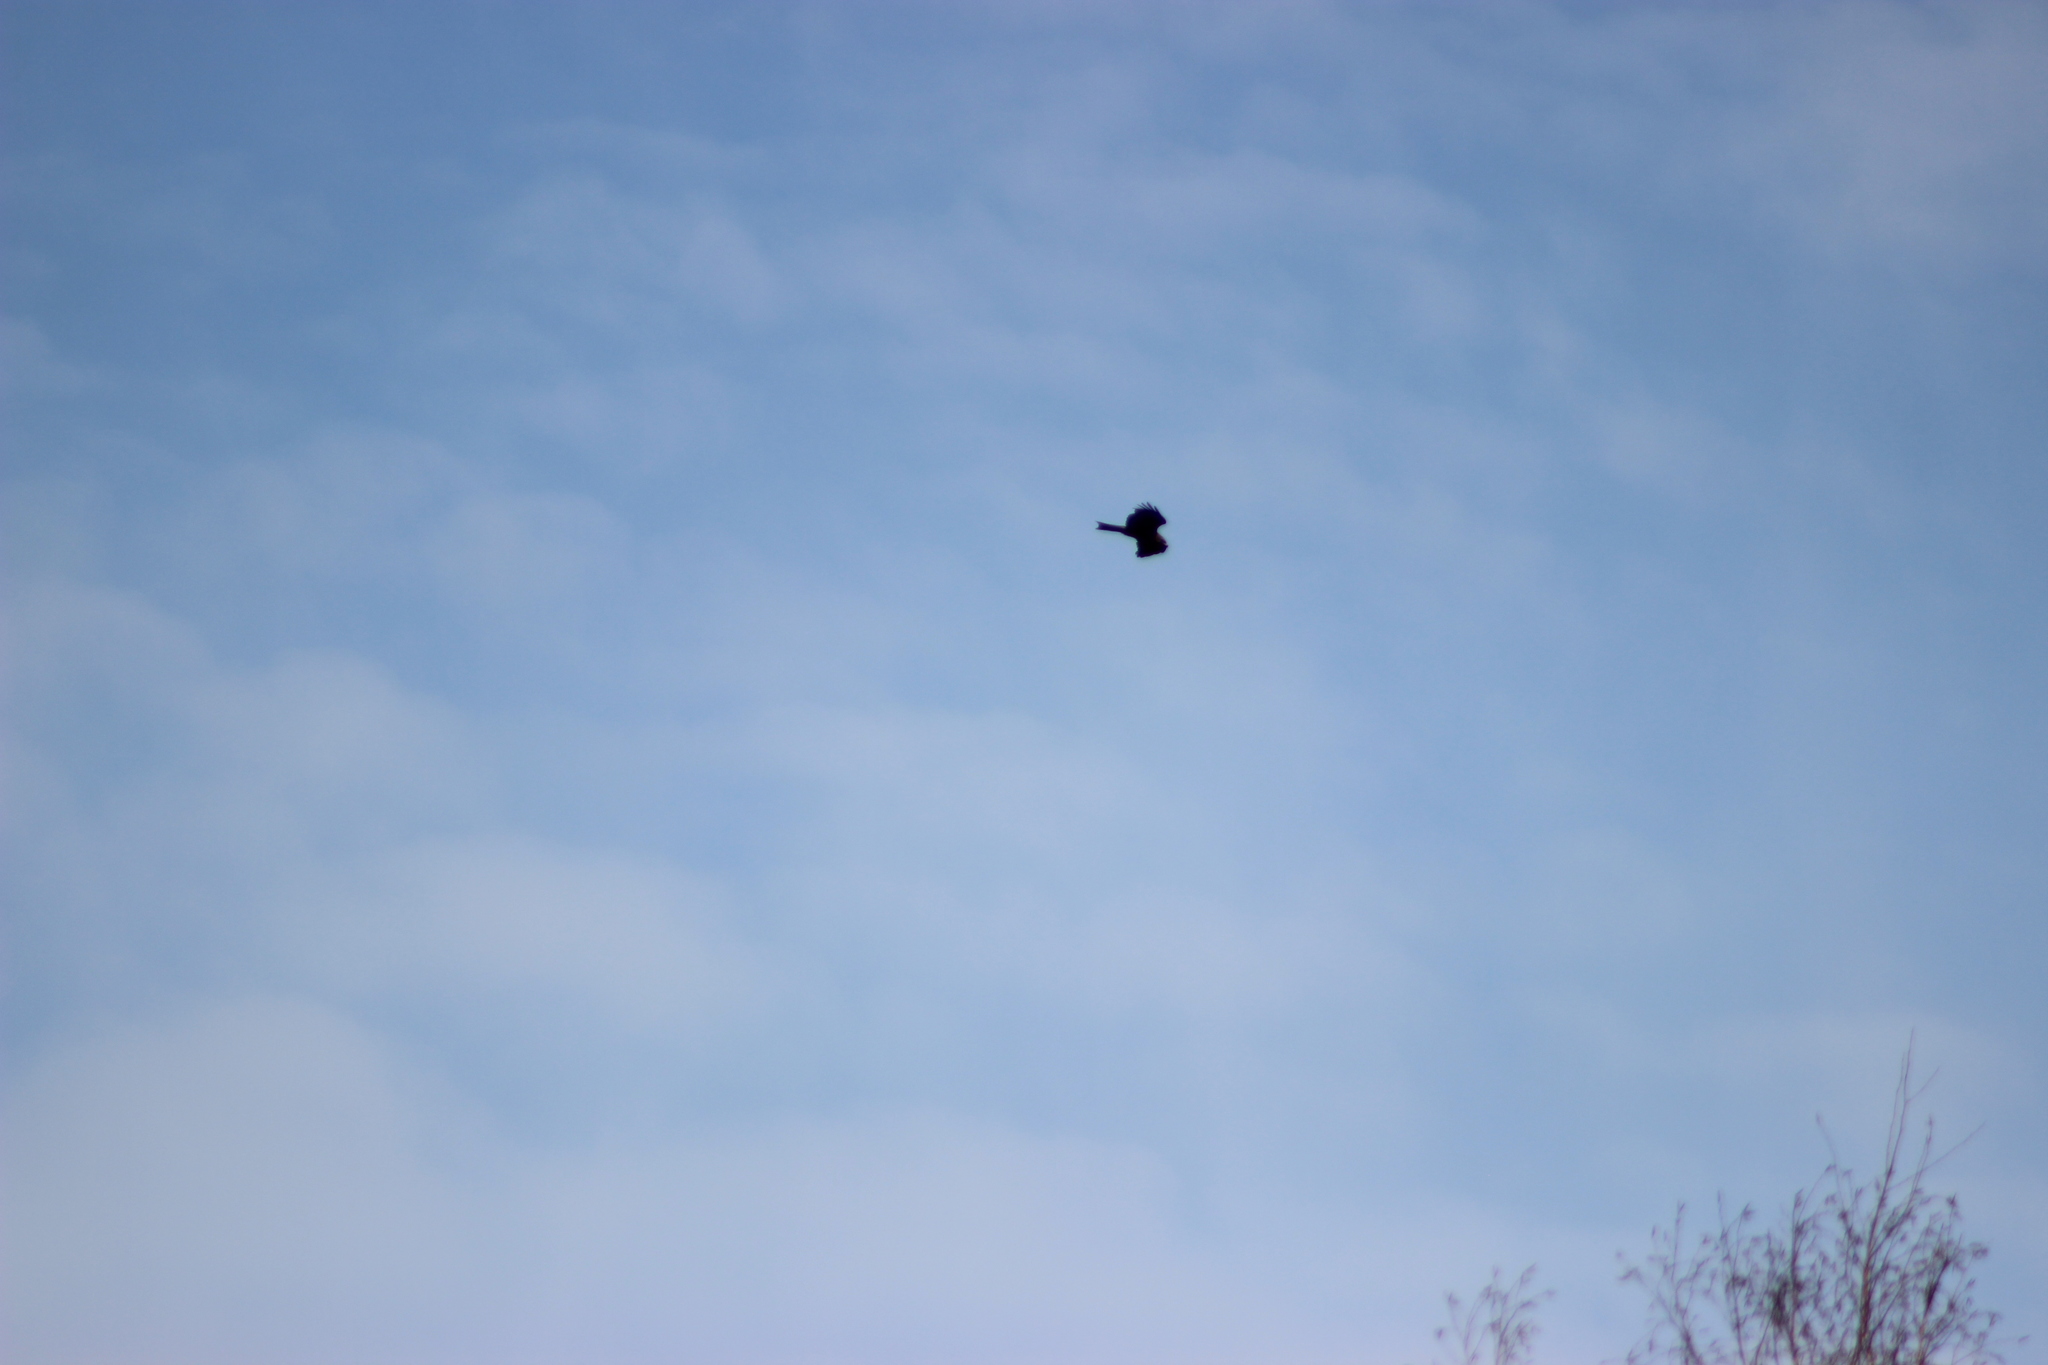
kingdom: Animalia
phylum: Chordata
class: Aves
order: Accipitriformes
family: Accipitridae
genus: Milvus
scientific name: Milvus migrans
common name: Black kite
